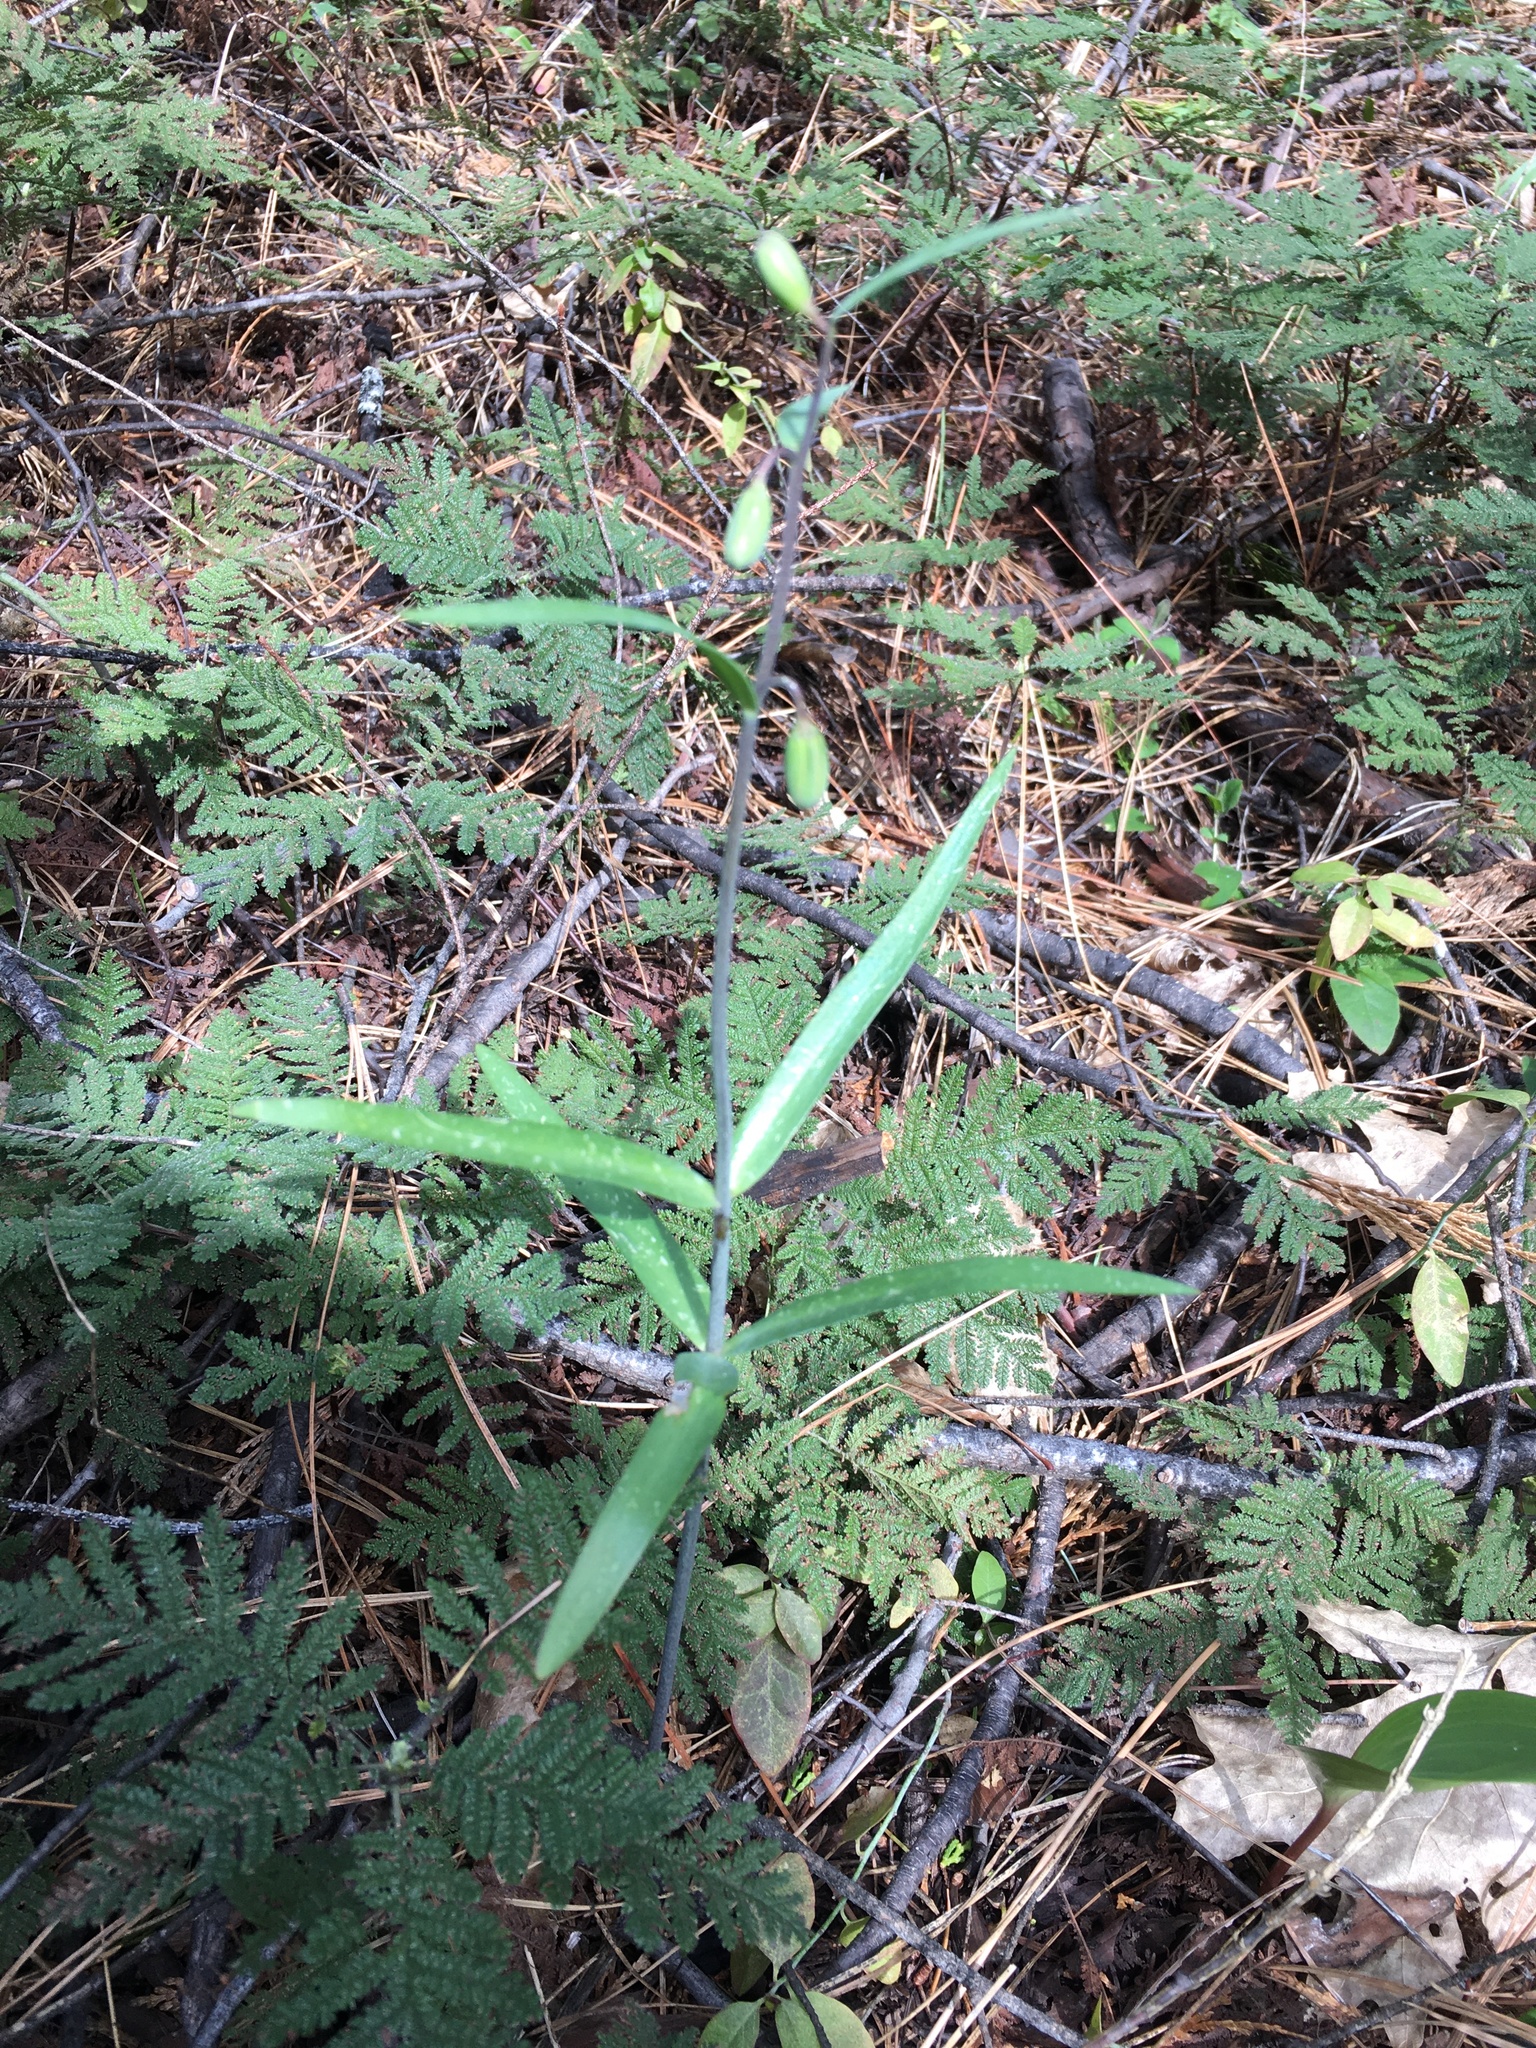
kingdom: Plantae
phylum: Tracheophyta
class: Liliopsida
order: Liliales
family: Liliaceae
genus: Fritillaria
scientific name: Fritillaria micrantha
